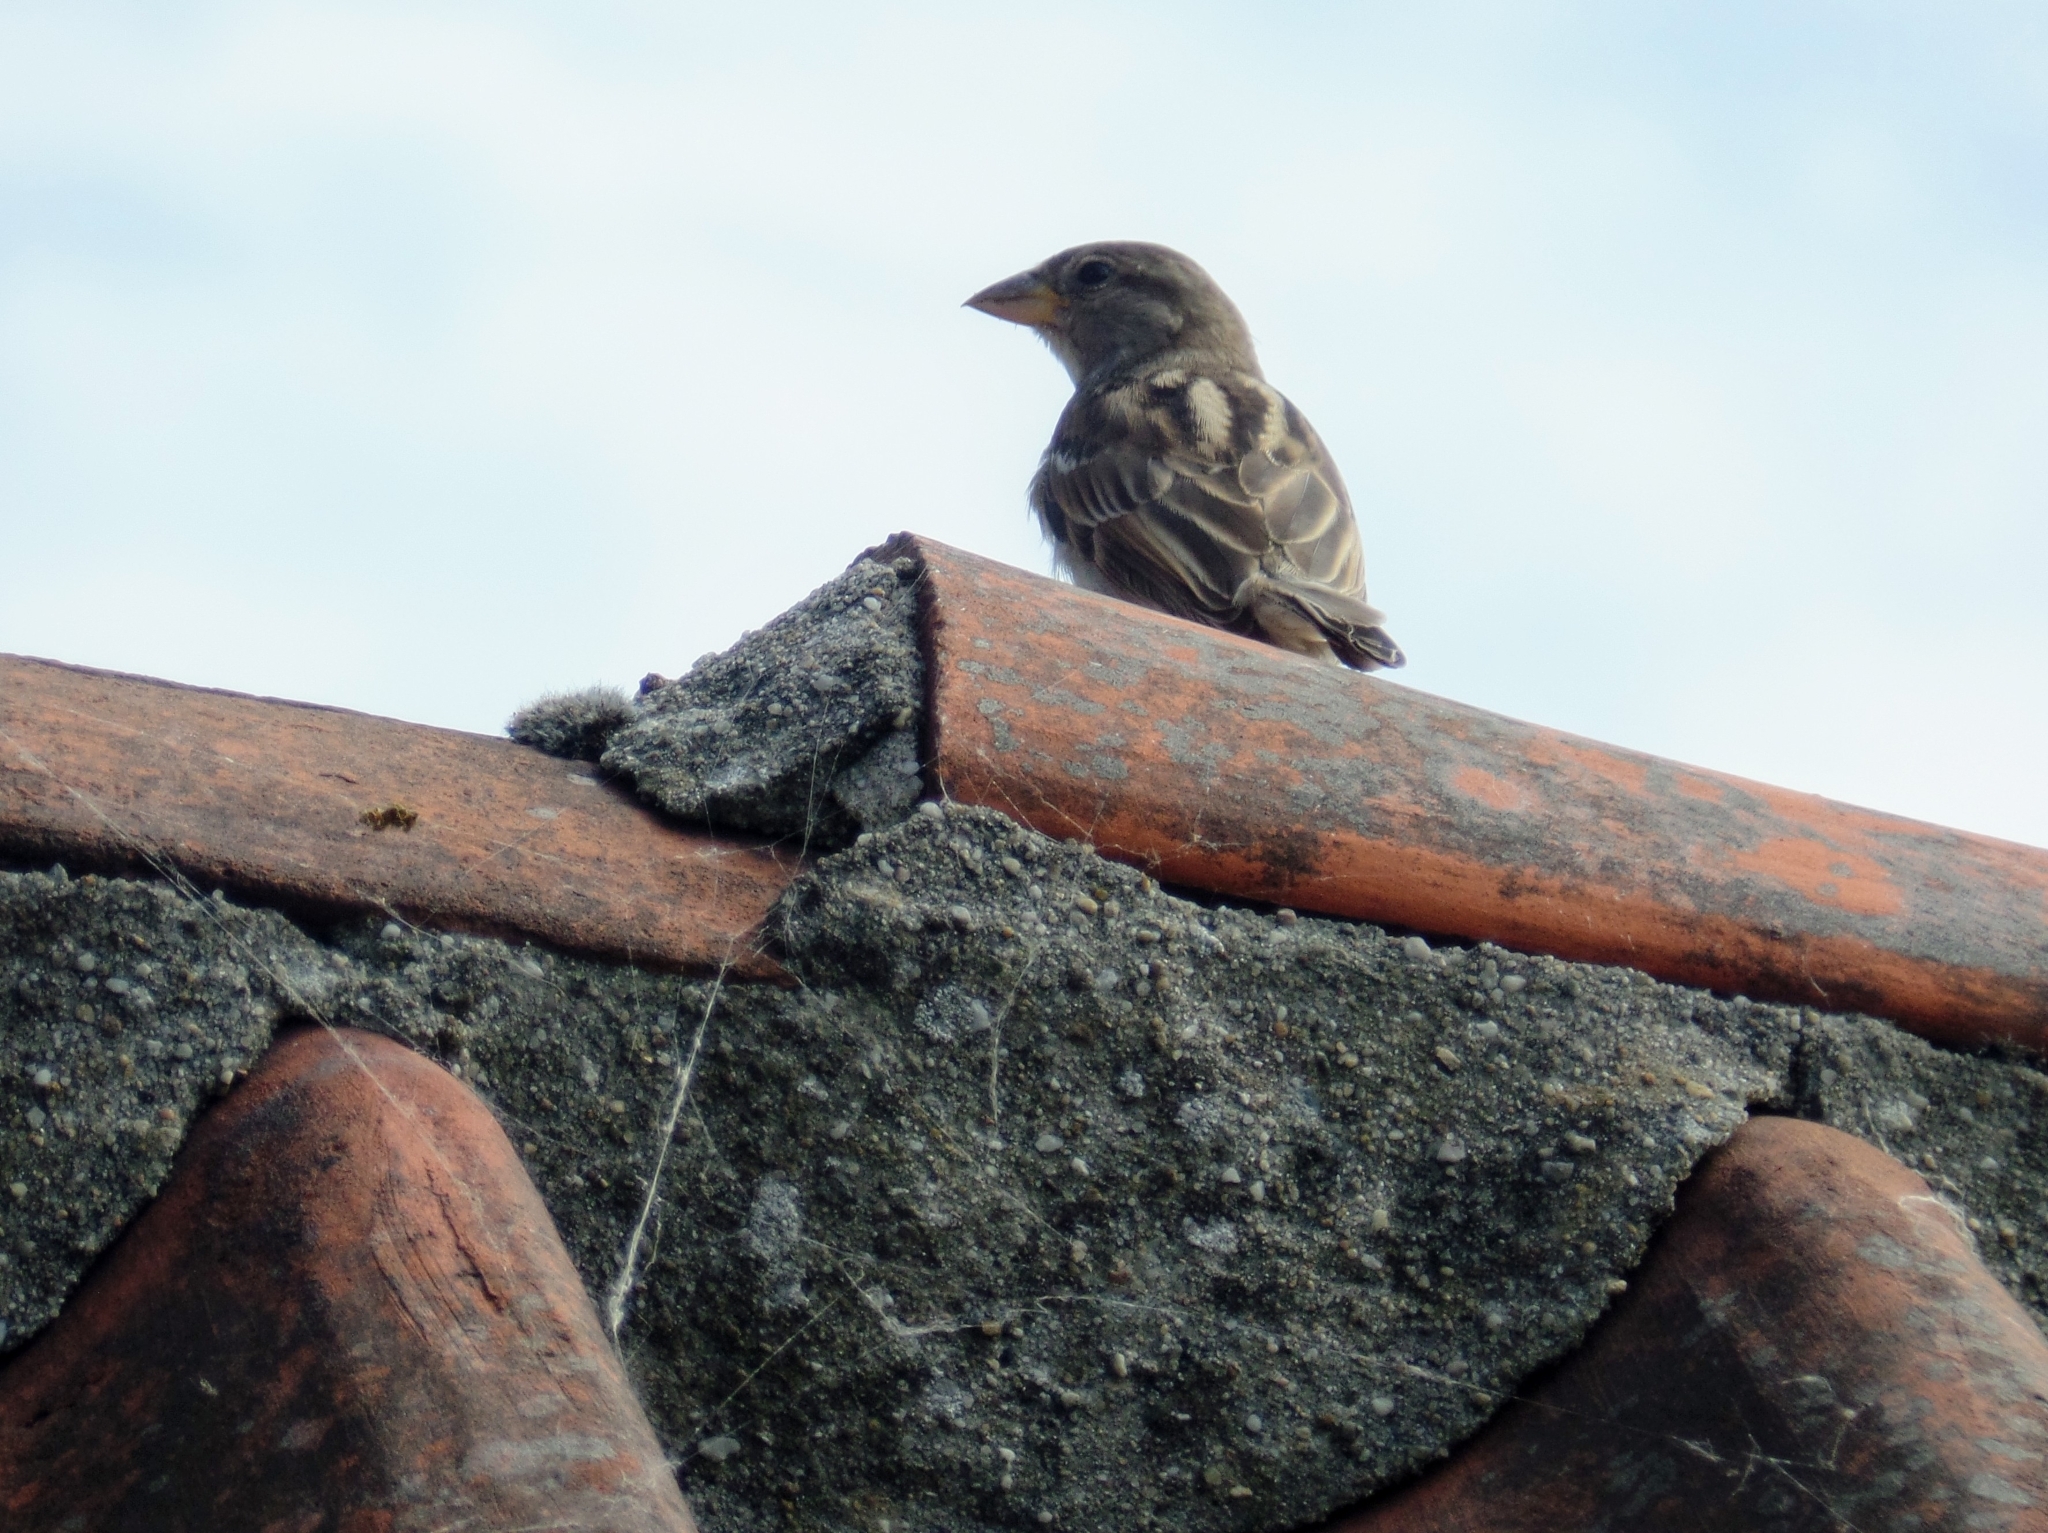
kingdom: Animalia
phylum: Chordata
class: Aves
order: Passeriformes
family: Passeridae
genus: Passer
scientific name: Passer domesticus
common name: House sparrow
